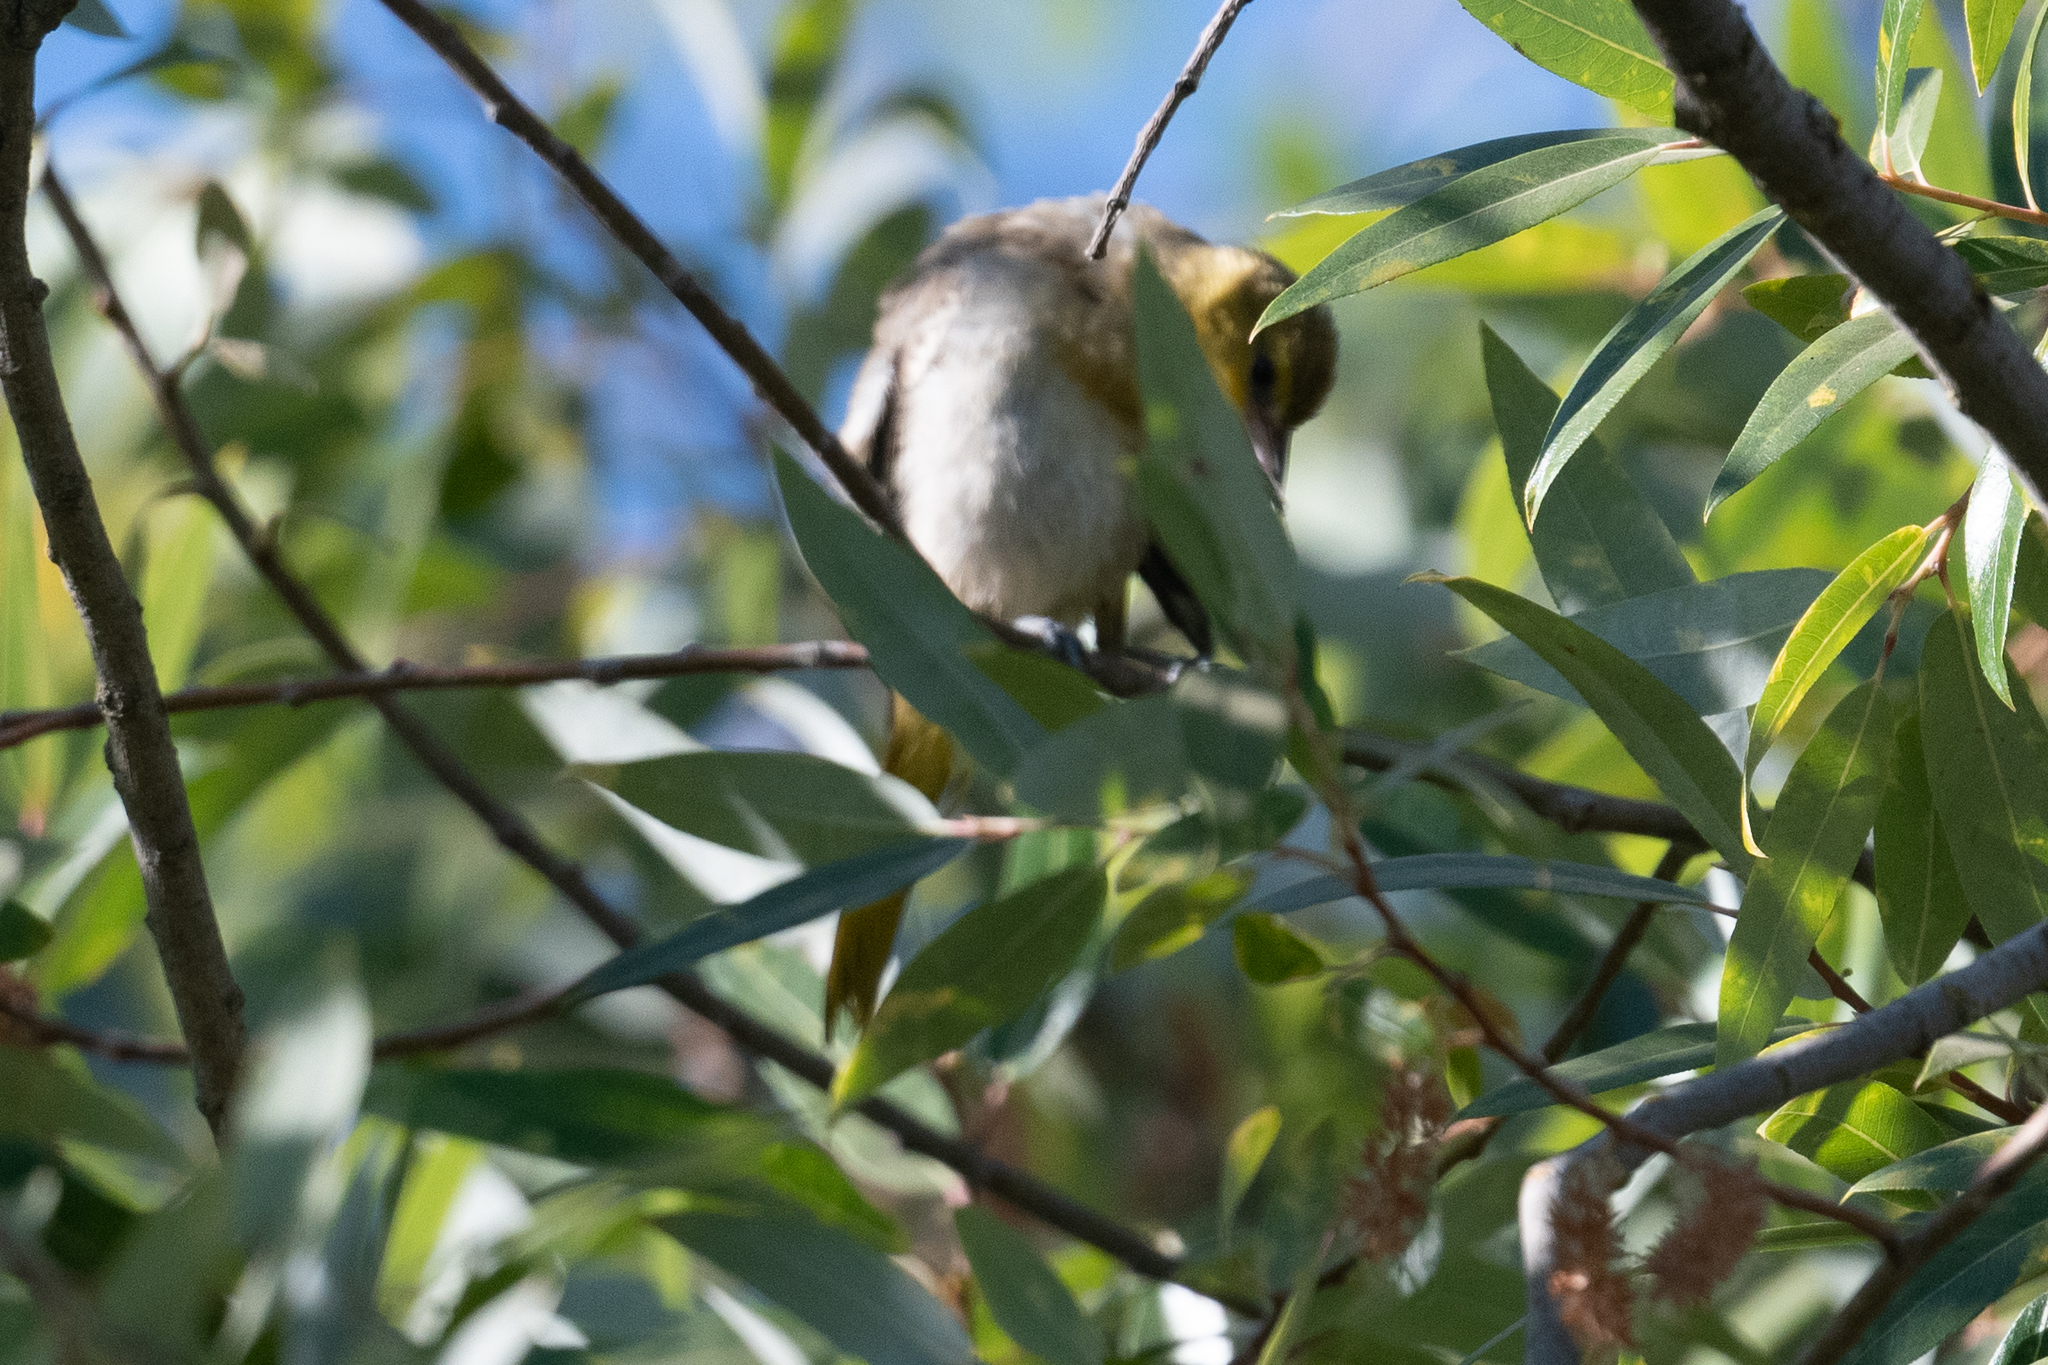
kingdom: Animalia
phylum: Chordata
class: Aves
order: Passeriformes
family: Icteridae
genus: Icterus
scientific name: Icterus bullockii
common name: Bullock's oriole
